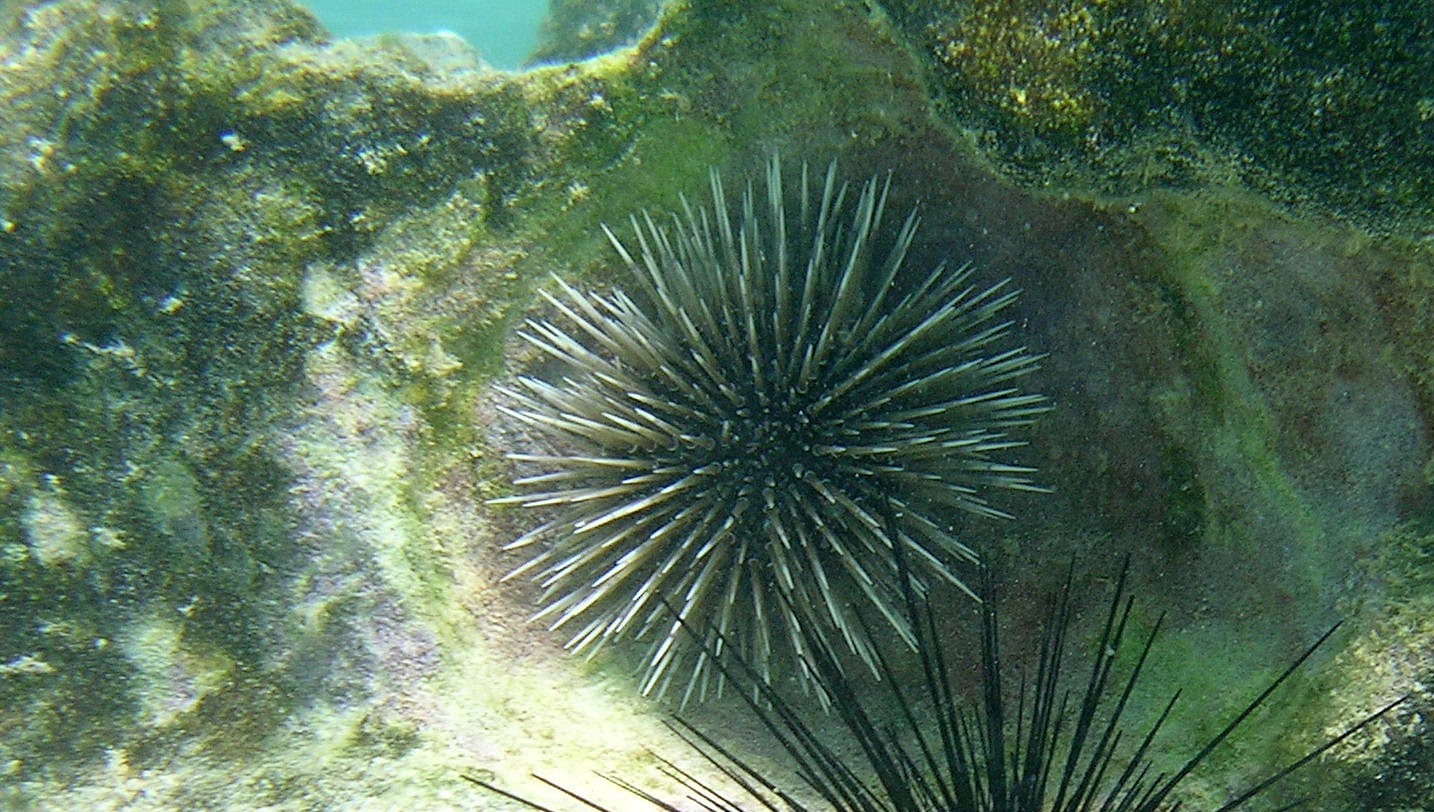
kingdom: Animalia
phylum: Echinodermata
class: Echinoidea
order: Camarodonta
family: Echinometridae
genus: Echinometra
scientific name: Echinometra mathaei
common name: Rock-boring urchin
